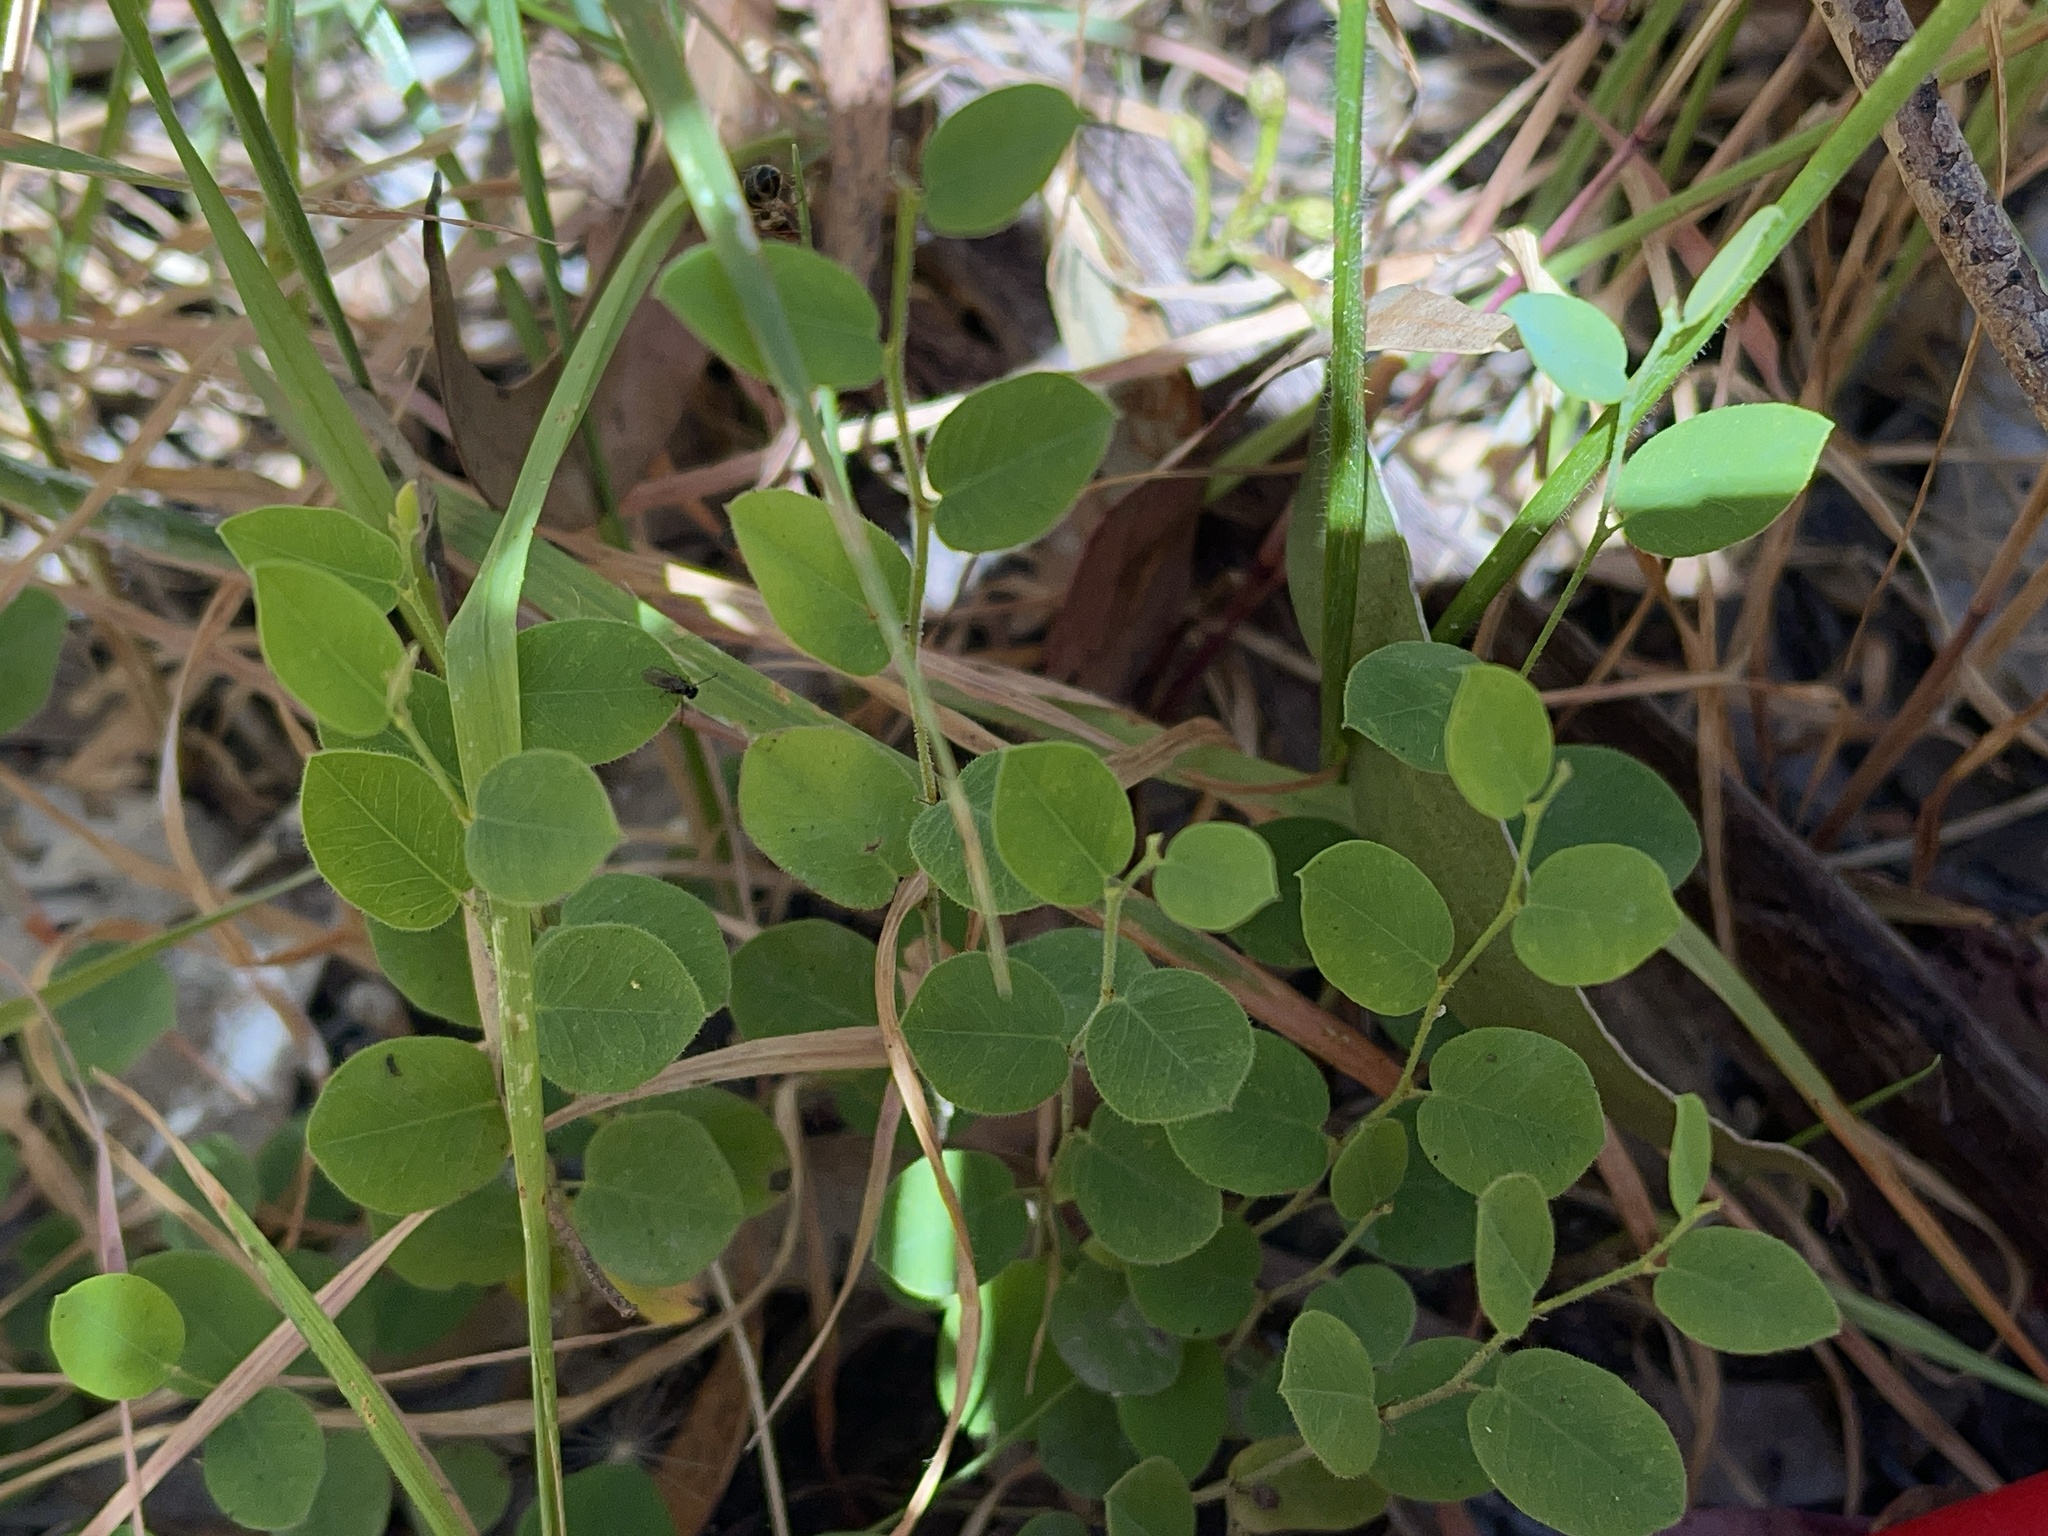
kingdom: Plantae
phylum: Tracheophyta
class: Magnoliopsida
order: Fabales
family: Fabaceae
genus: Bossiaea
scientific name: Bossiaea prostrata
